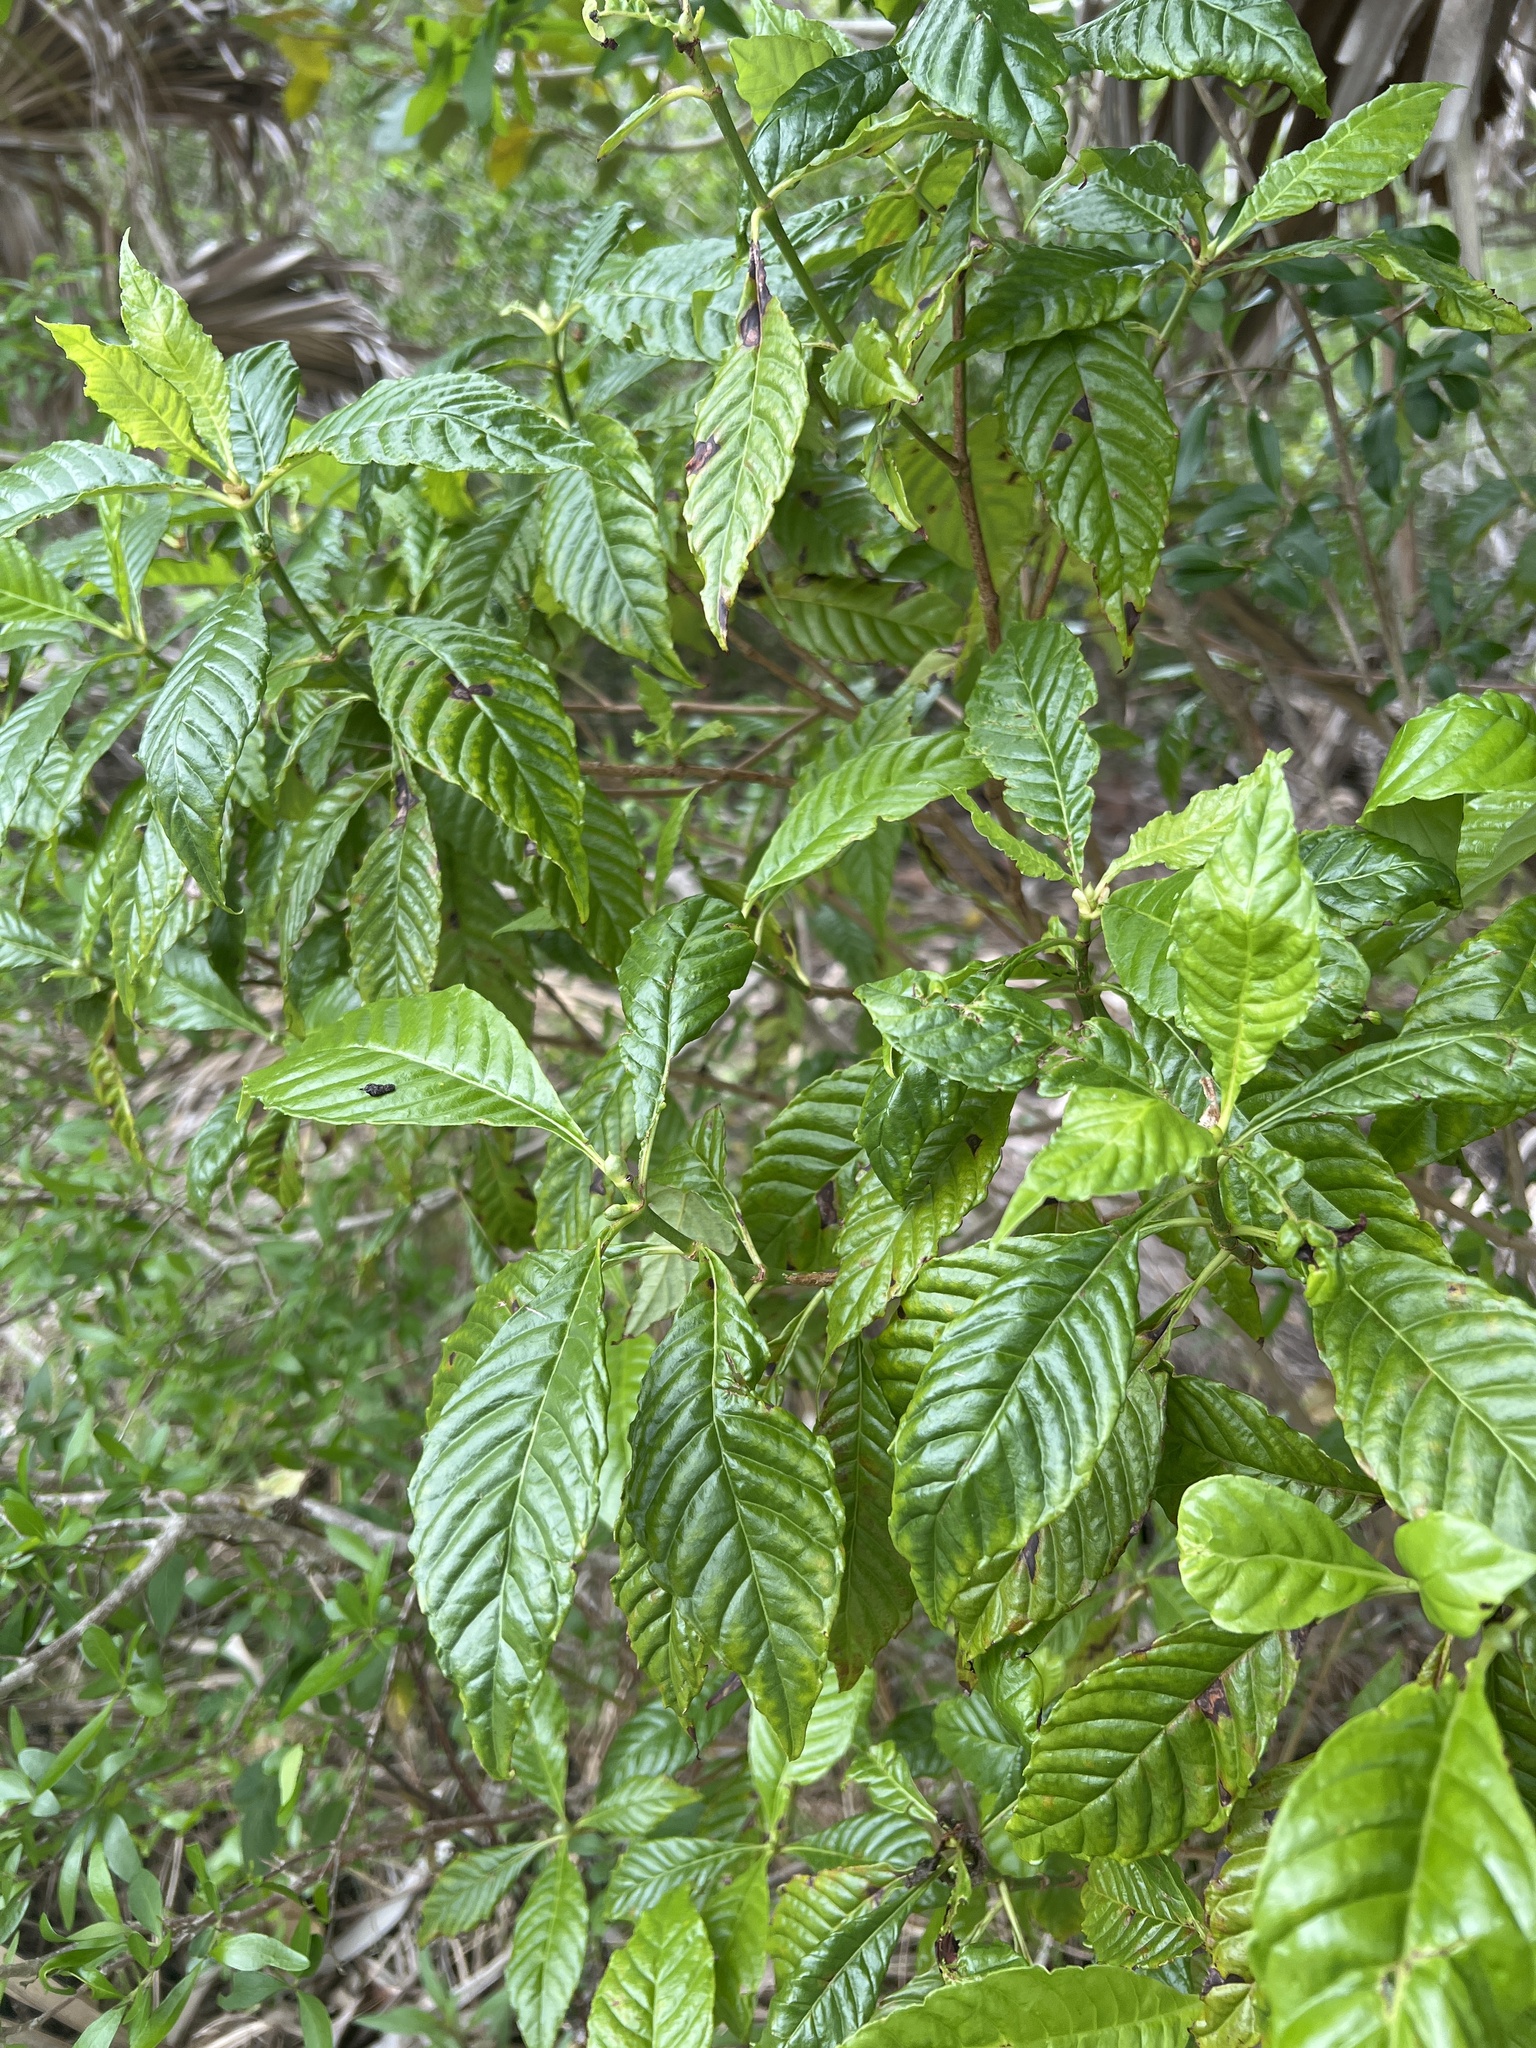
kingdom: Plantae
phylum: Tracheophyta
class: Magnoliopsida
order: Gentianales
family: Rubiaceae
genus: Psychotria
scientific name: Psychotria nervosa
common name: Bastard cankerberry
